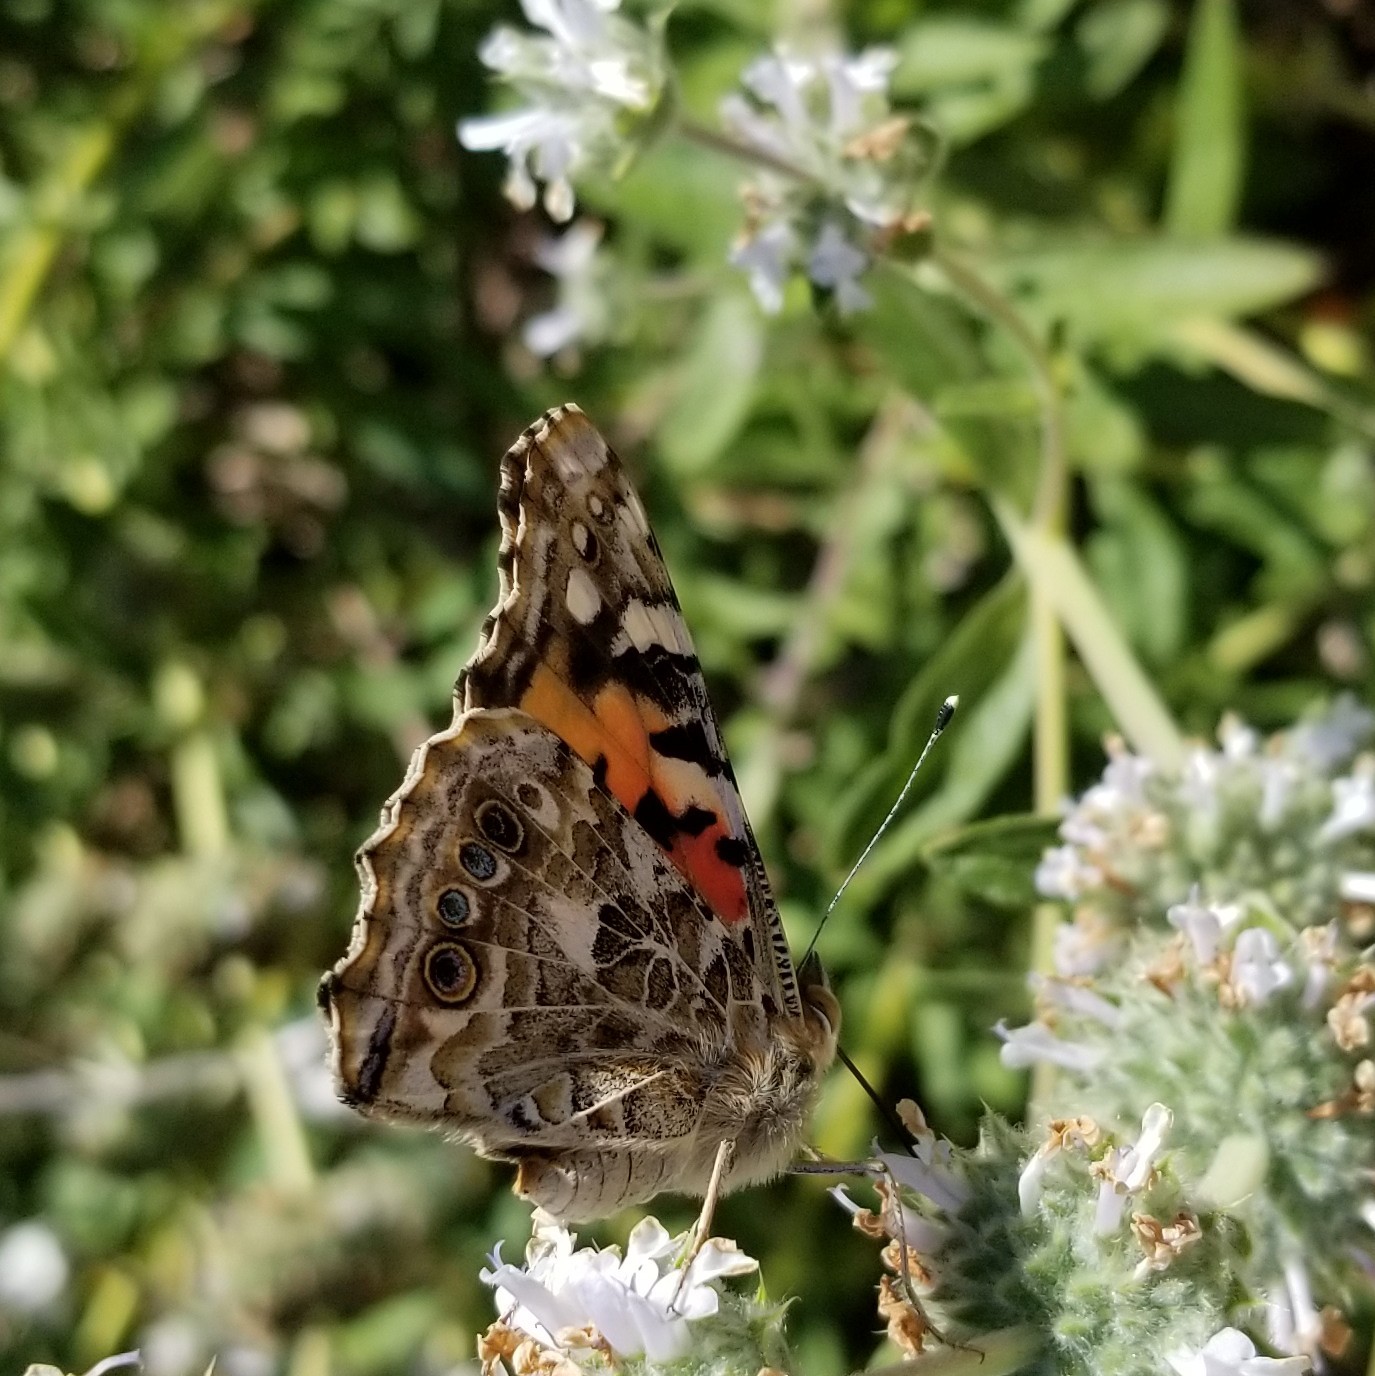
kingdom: Animalia
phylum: Arthropoda
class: Insecta
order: Lepidoptera
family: Nymphalidae
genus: Vanessa
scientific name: Vanessa cardui
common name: Painted lady
